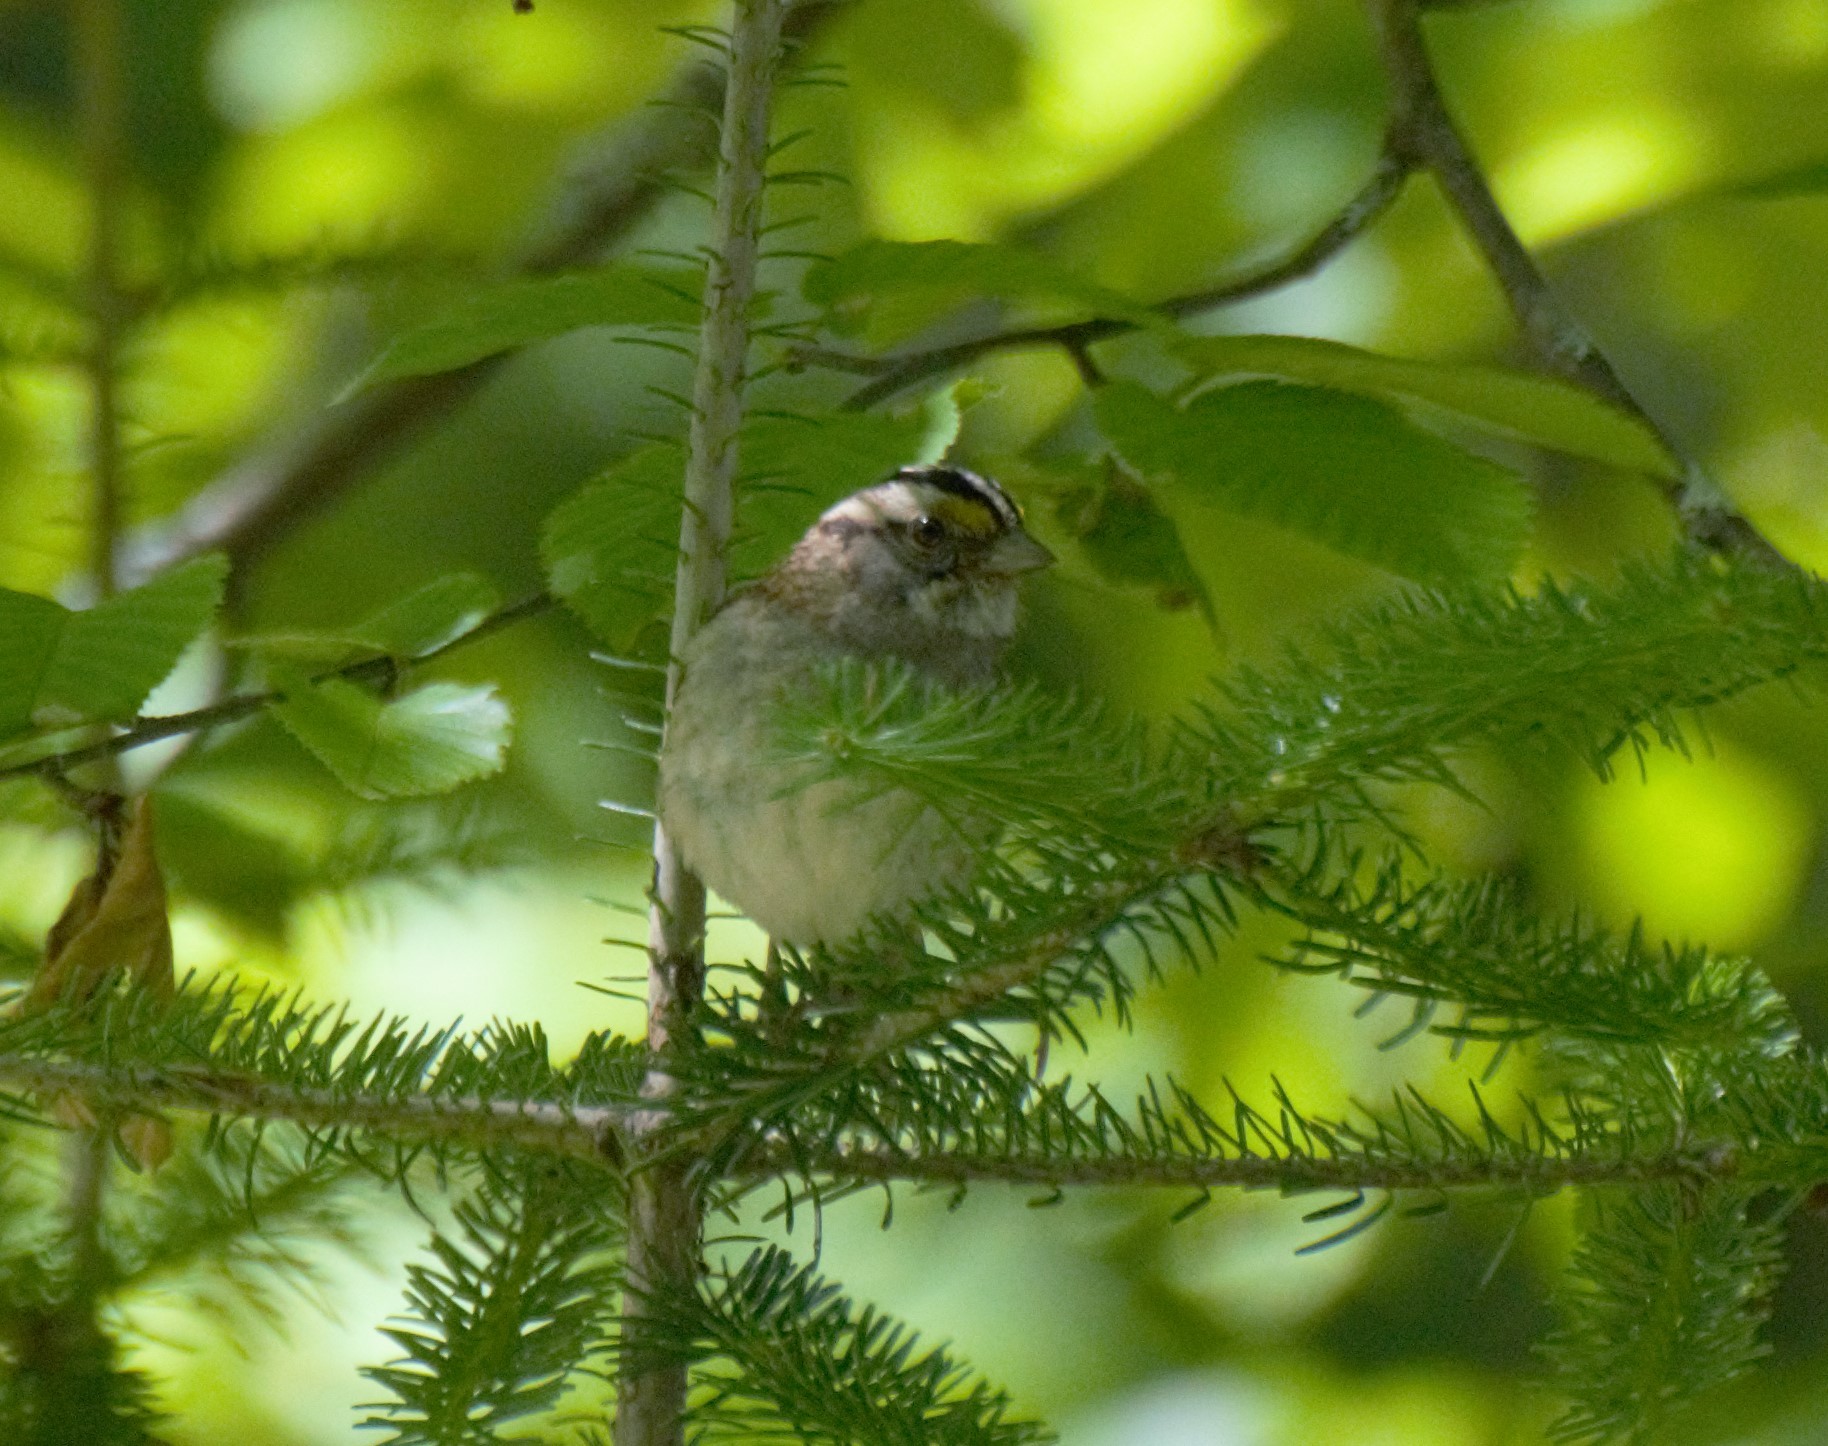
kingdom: Animalia
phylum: Chordata
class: Aves
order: Passeriformes
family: Passerellidae
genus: Zonotrichia
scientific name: Zonotrichia albicollis
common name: White-throated sparrow
